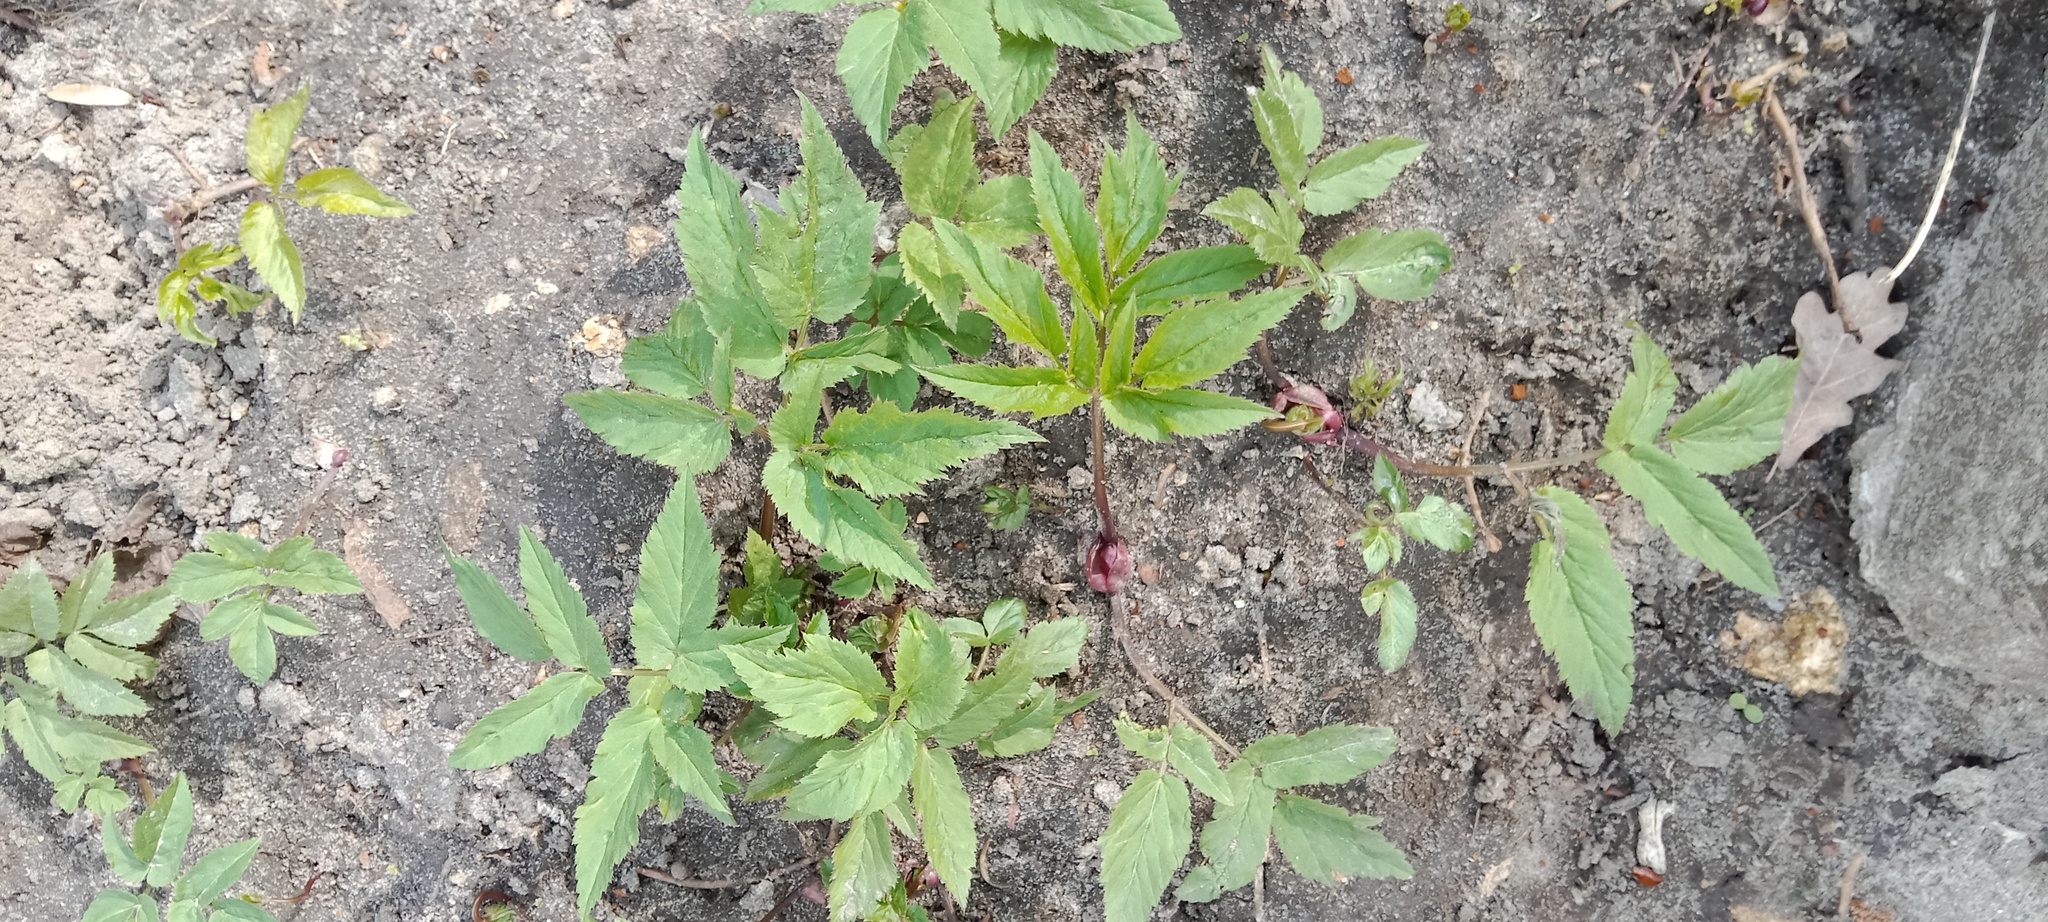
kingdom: Plantae
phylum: Tracheophyta
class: Magnoliopsida
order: Apiales
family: Apiaceae
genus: Aegopodium
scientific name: Aegopodium podagraria
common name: Ground-elder
